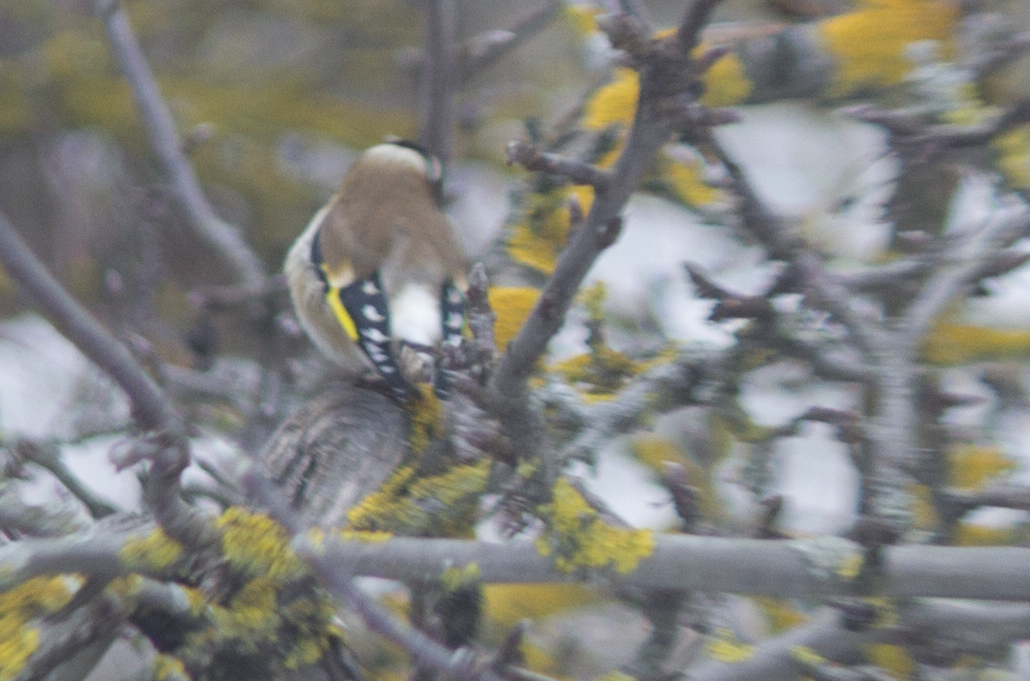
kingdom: Animalia
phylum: Chordata
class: Aves
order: Passeriformes
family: Fringillidae
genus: Carduelis
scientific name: Carduelis carduelis
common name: European goldfinch
